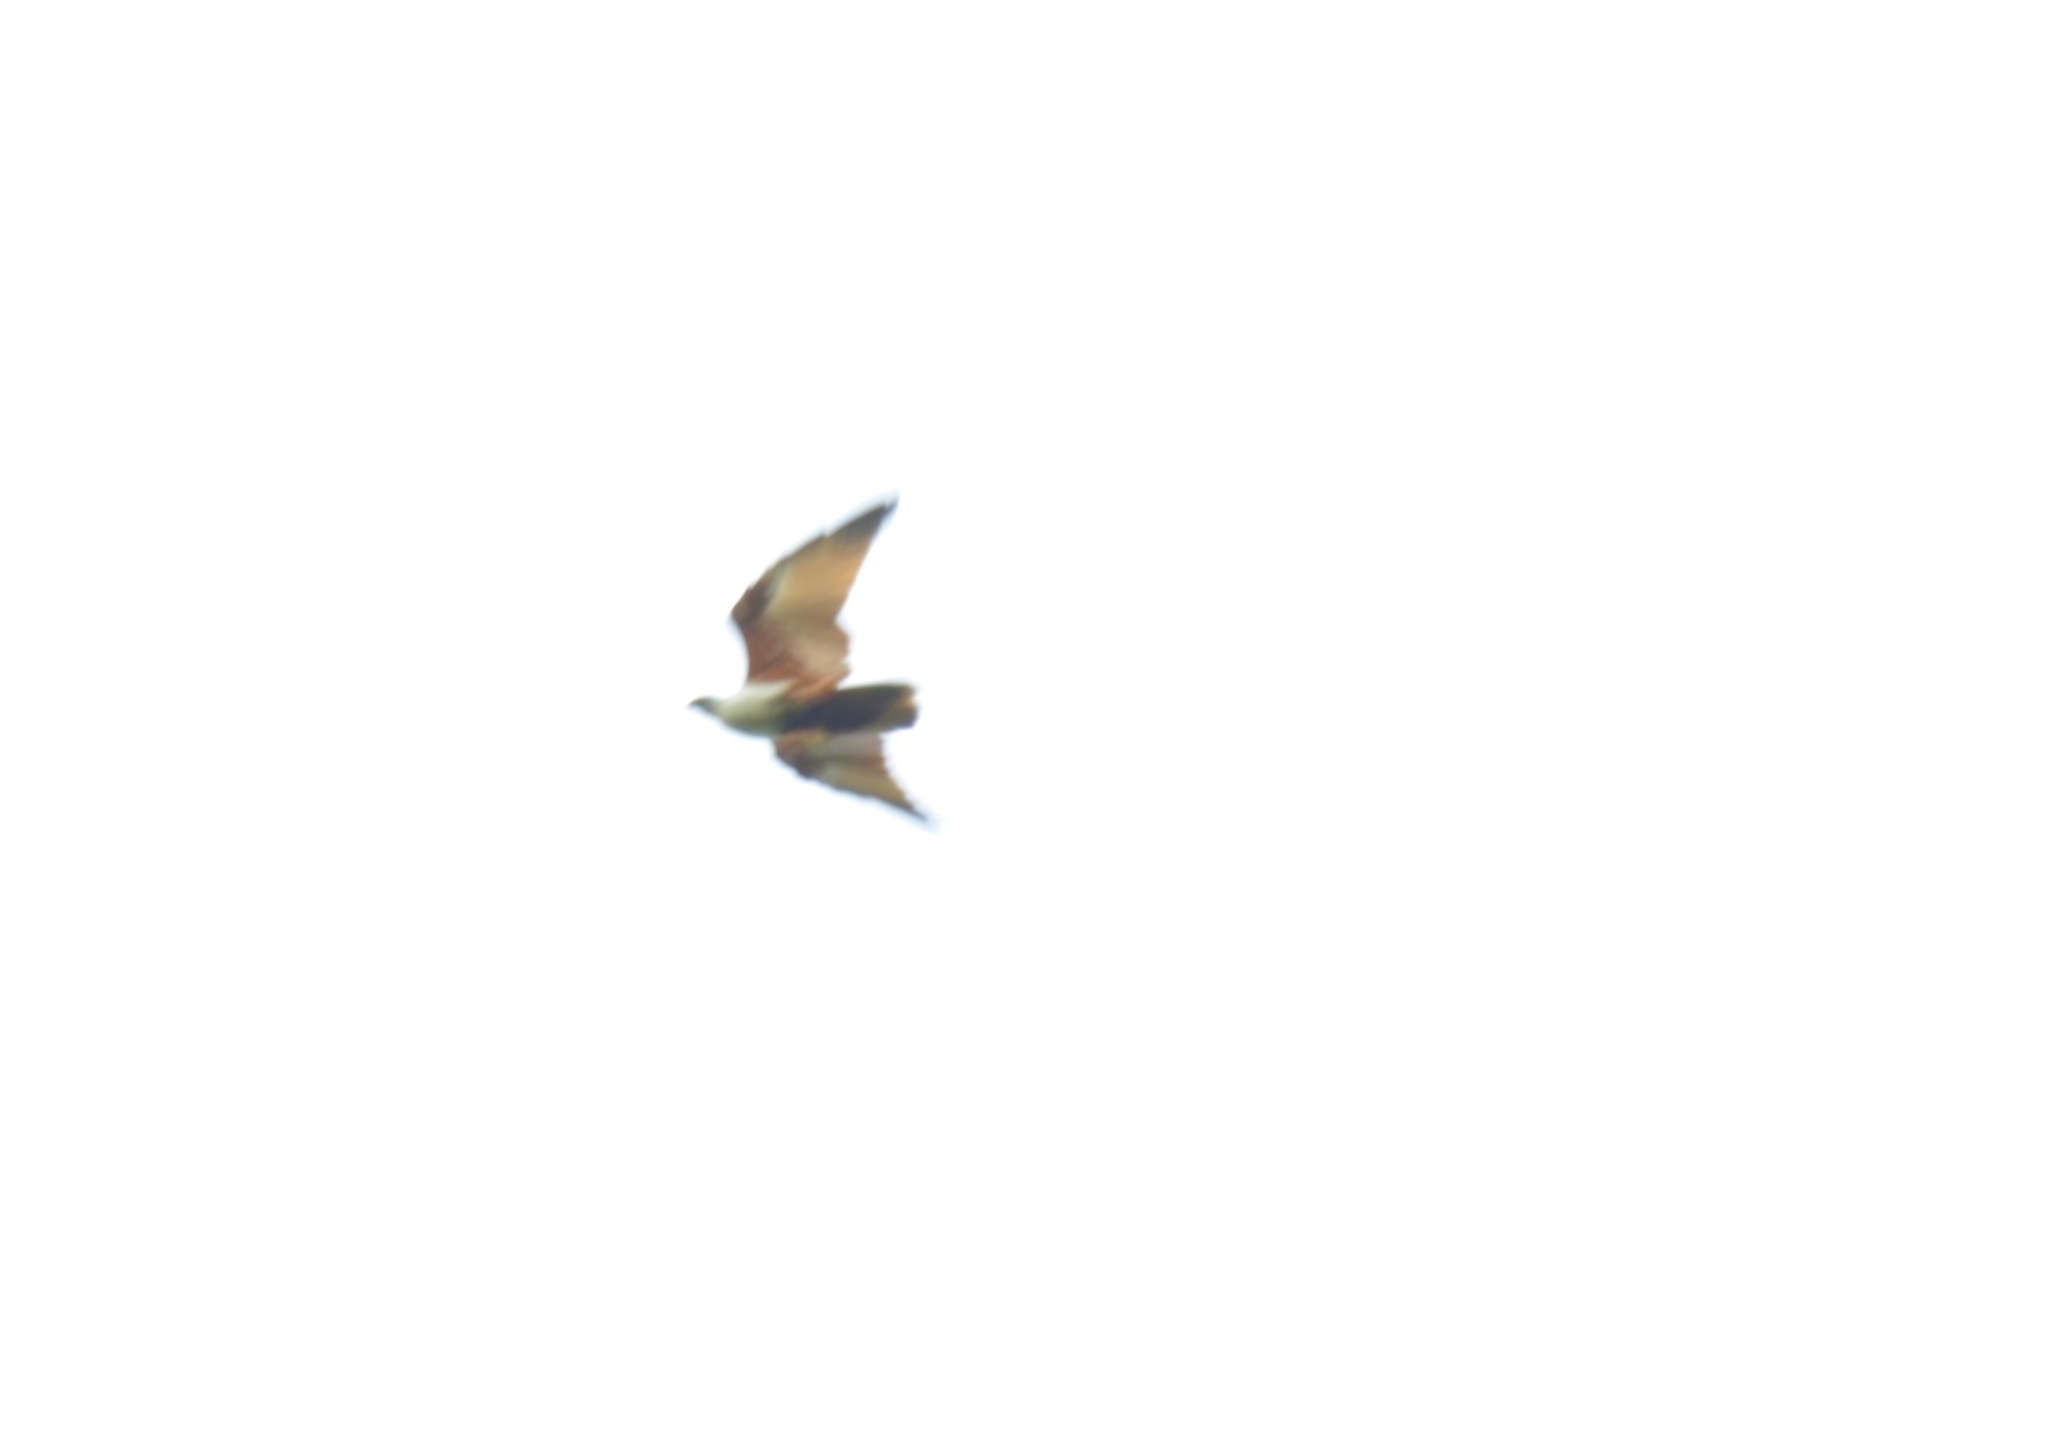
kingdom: Animalia
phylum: Chordata
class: Aves
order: Accipitriformes
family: Accipitridae
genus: Haliastur
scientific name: Haliastur indus
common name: Brahminy kite
